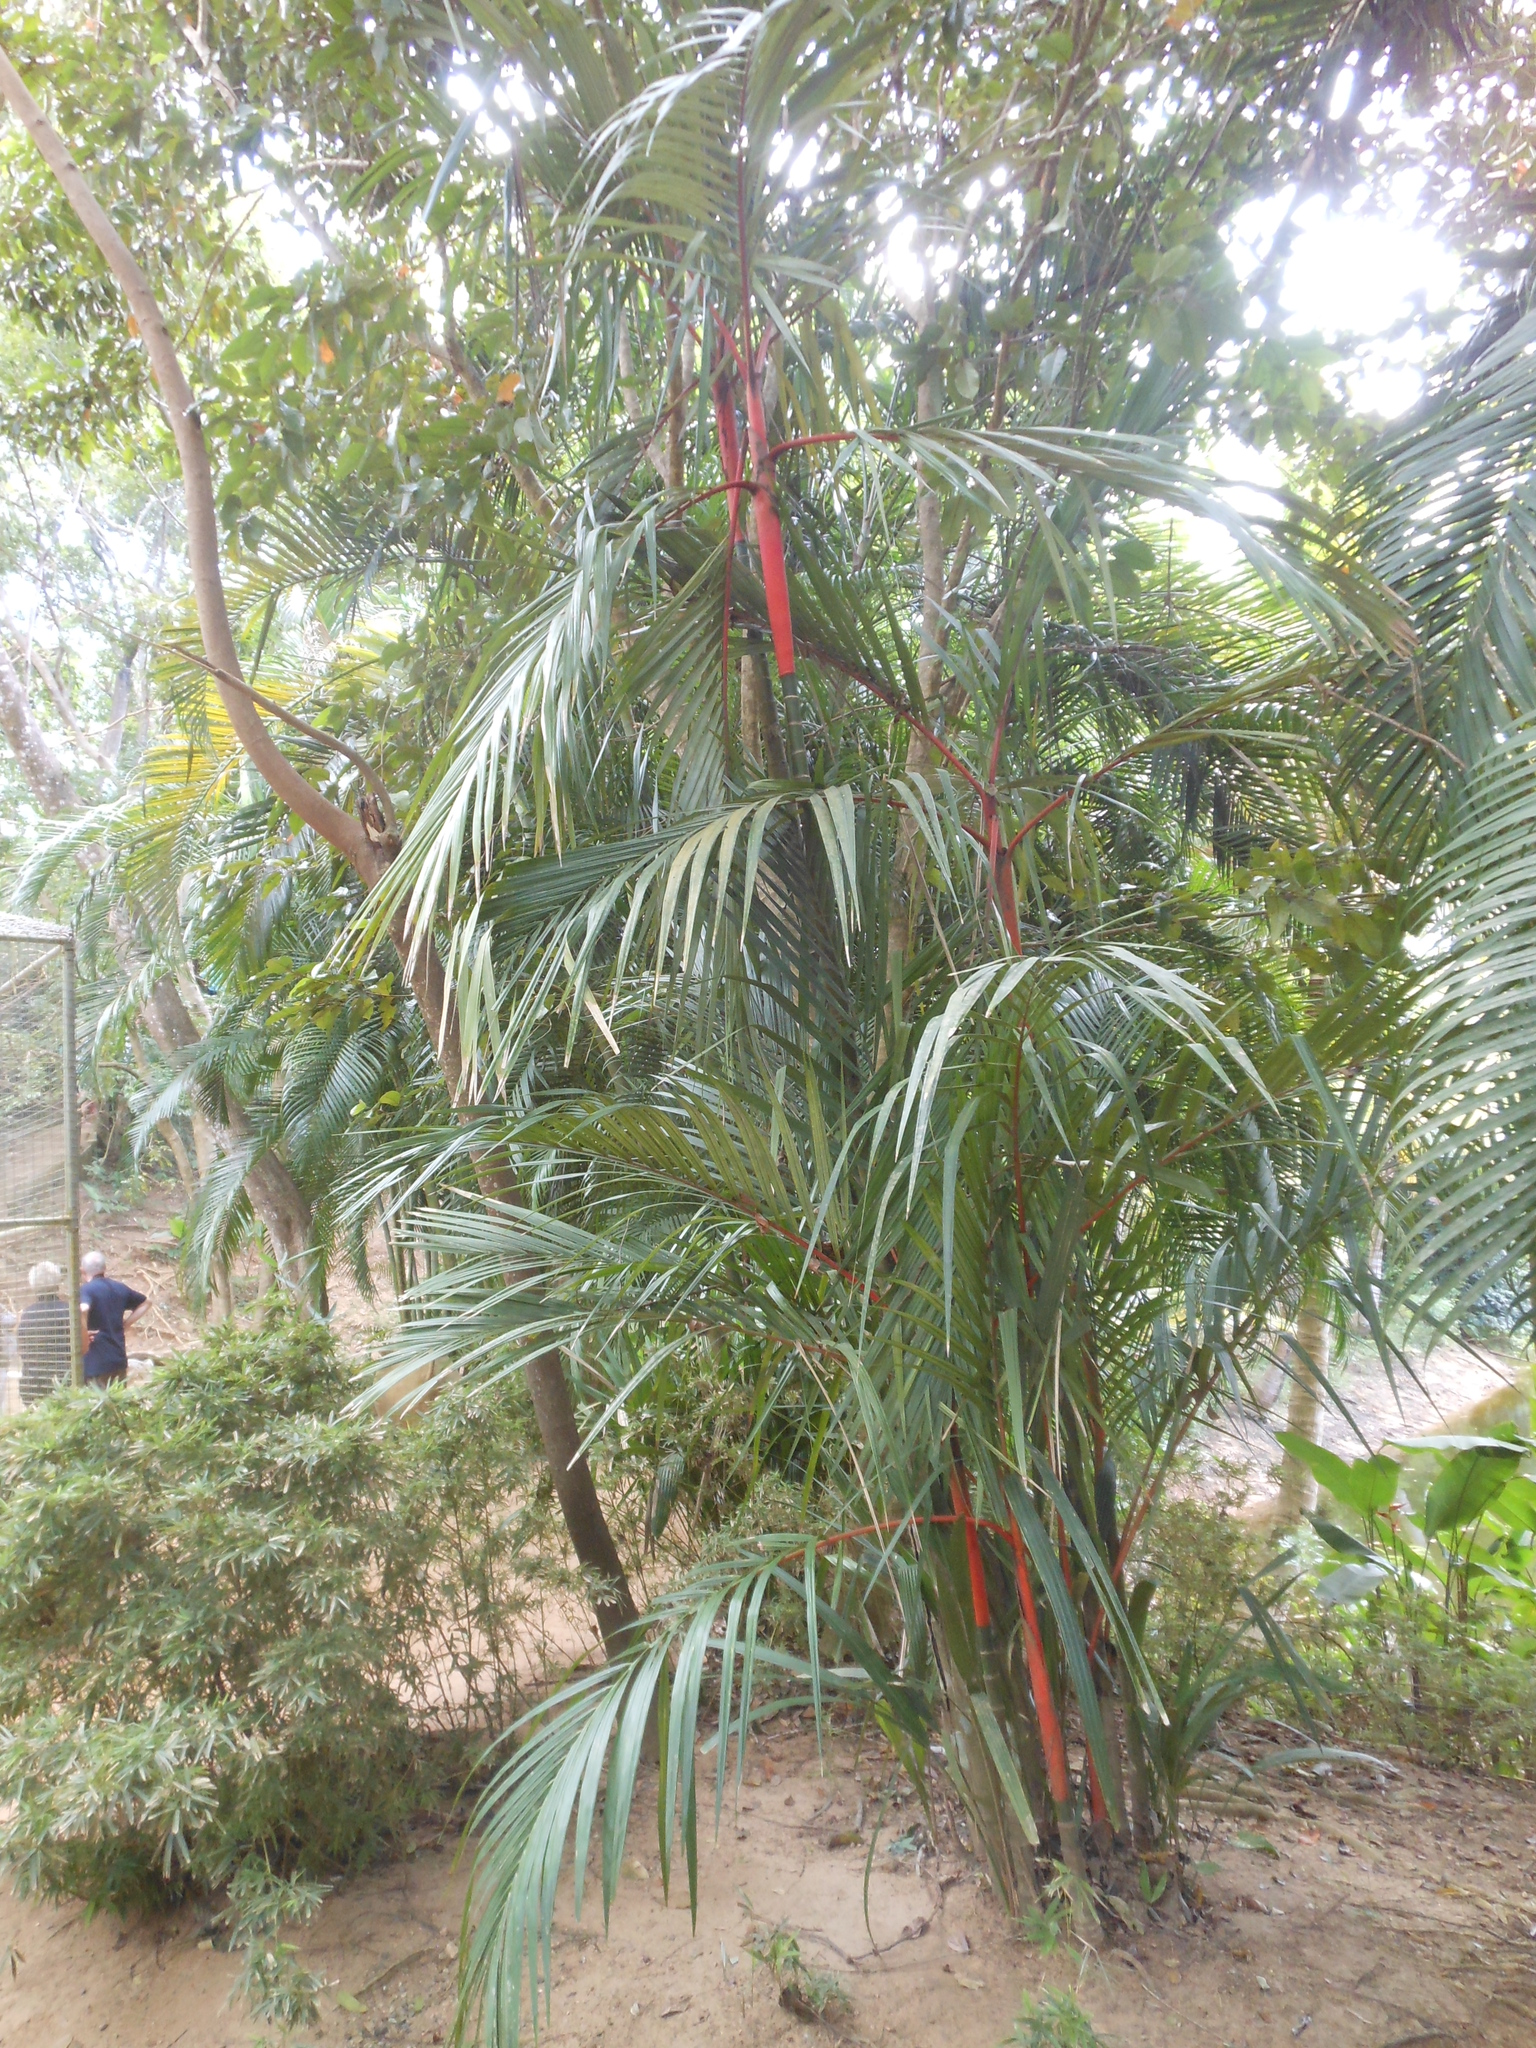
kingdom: Plantae
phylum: Tracheophyta
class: Liliopsida
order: Arecales
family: Arecaceae
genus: Cyrtostachys
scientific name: Cyrtostachys renda
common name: Lipstick palm
